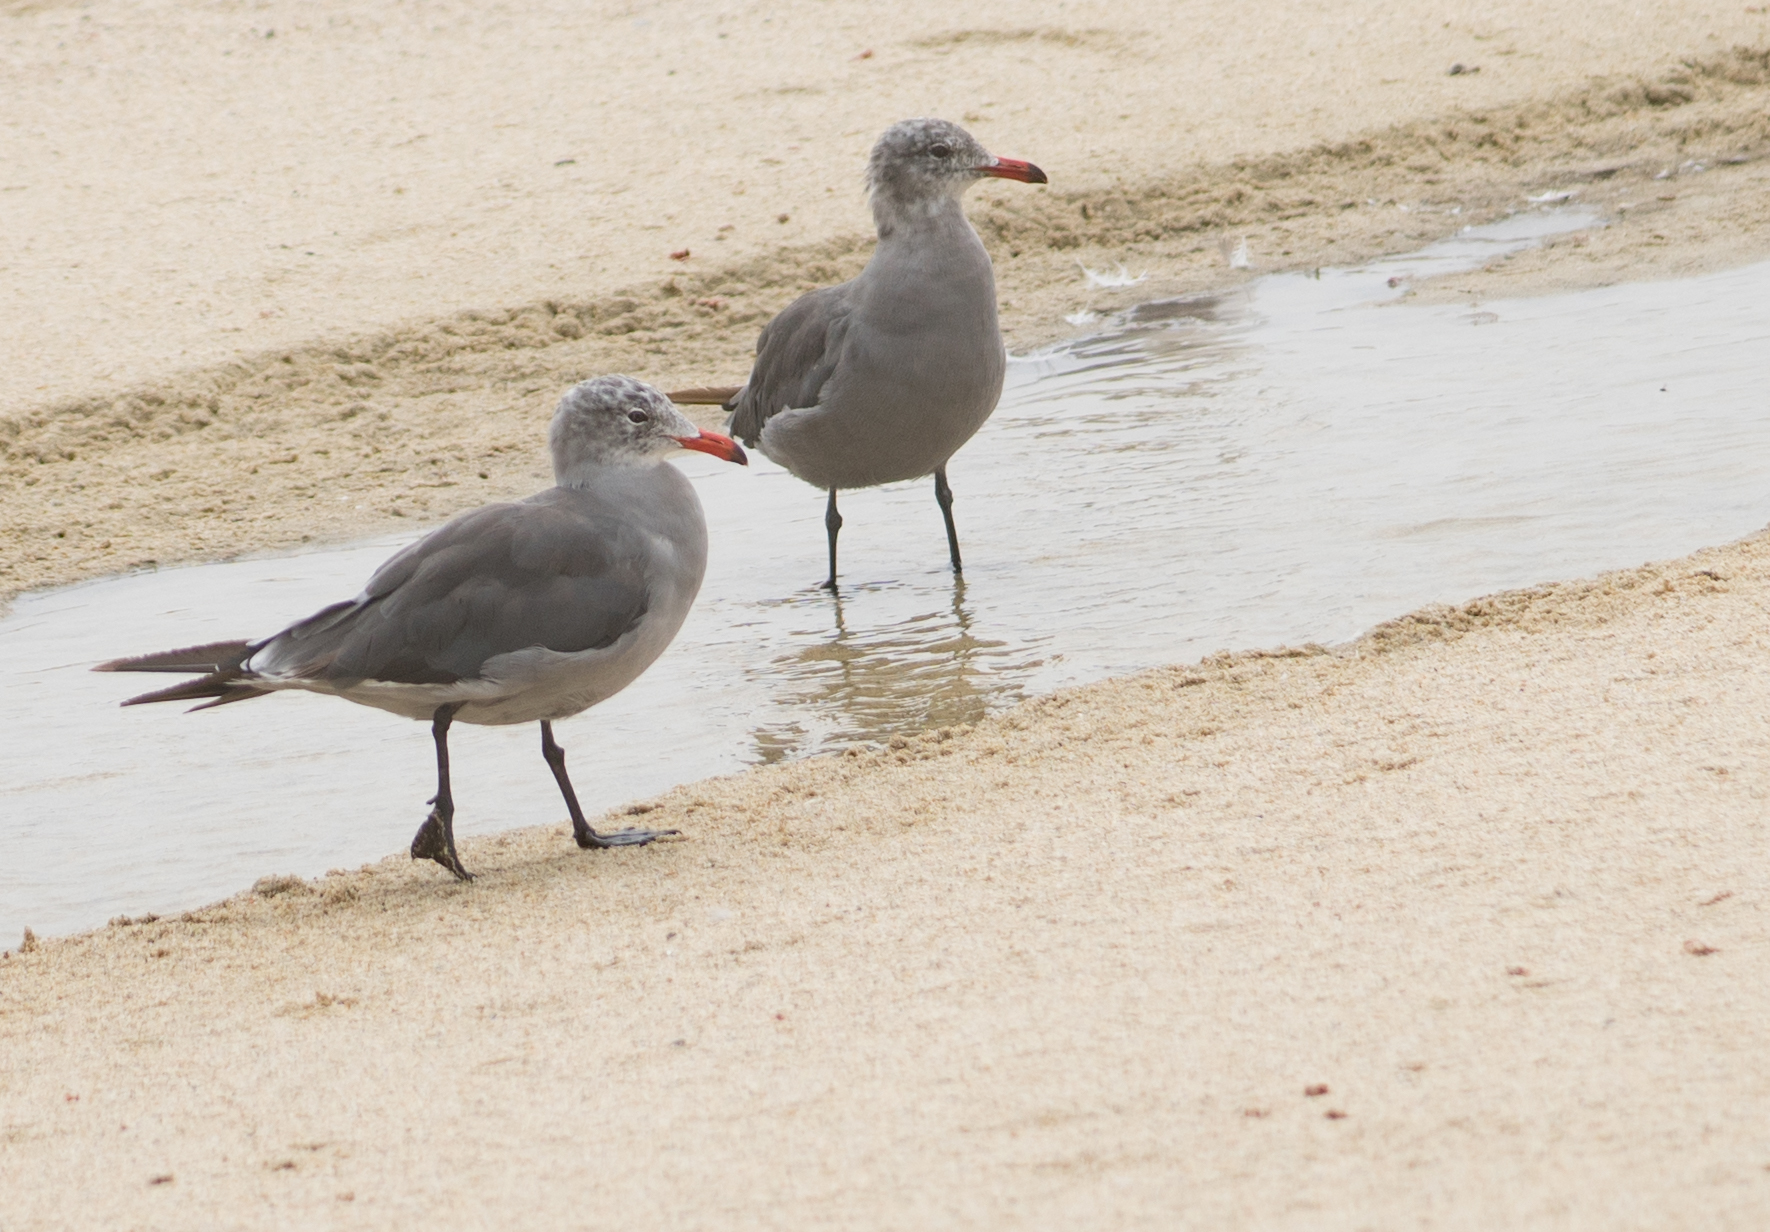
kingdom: Animalia
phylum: Chordata
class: Aves
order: Charadriiformes
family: Laridae
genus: Larus
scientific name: Larus heermanni
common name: Heermann's gull
